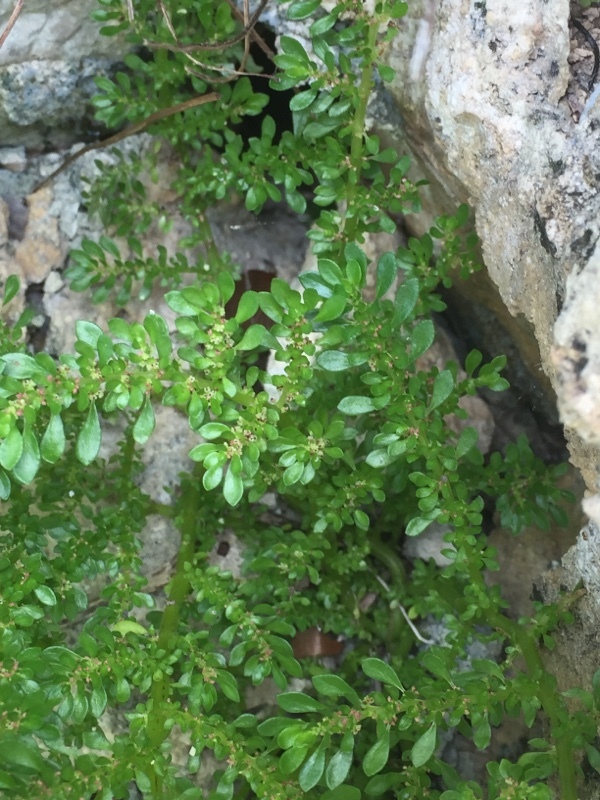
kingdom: Plantae
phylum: Tracheophyta
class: Magnoliopsida
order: Rosales
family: Urticaceae
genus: Pilea
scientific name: Pilea microphylla
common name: Artillery-plant
